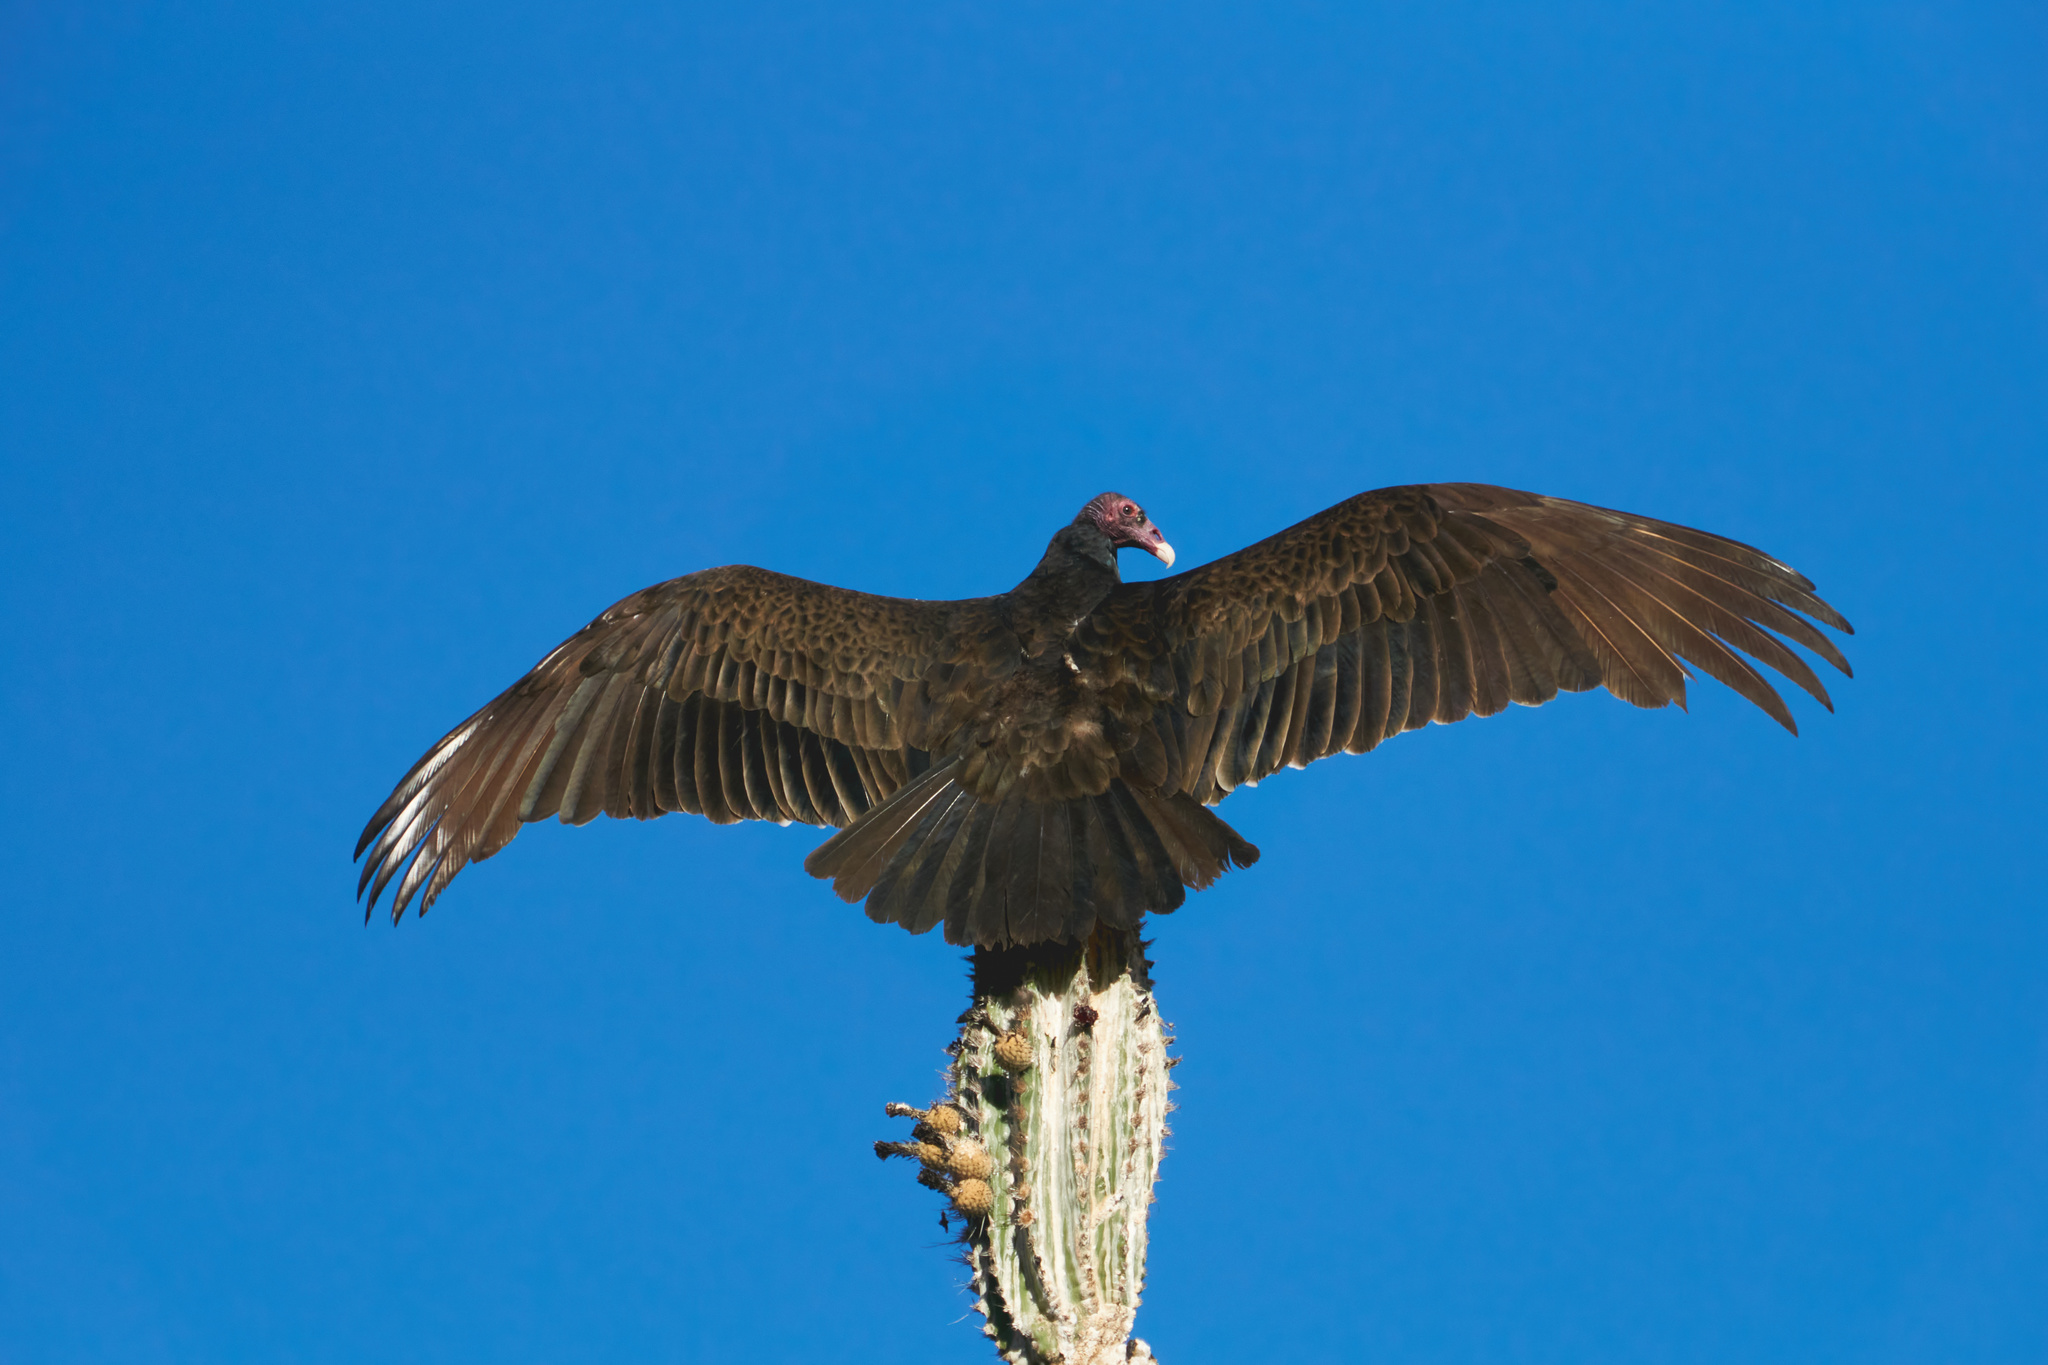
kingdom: Animalia
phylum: Chordata
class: Aves
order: Accipitriformes
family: Cathartidae
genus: Cathartes
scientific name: Cathartes aura
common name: Turkey vulture
